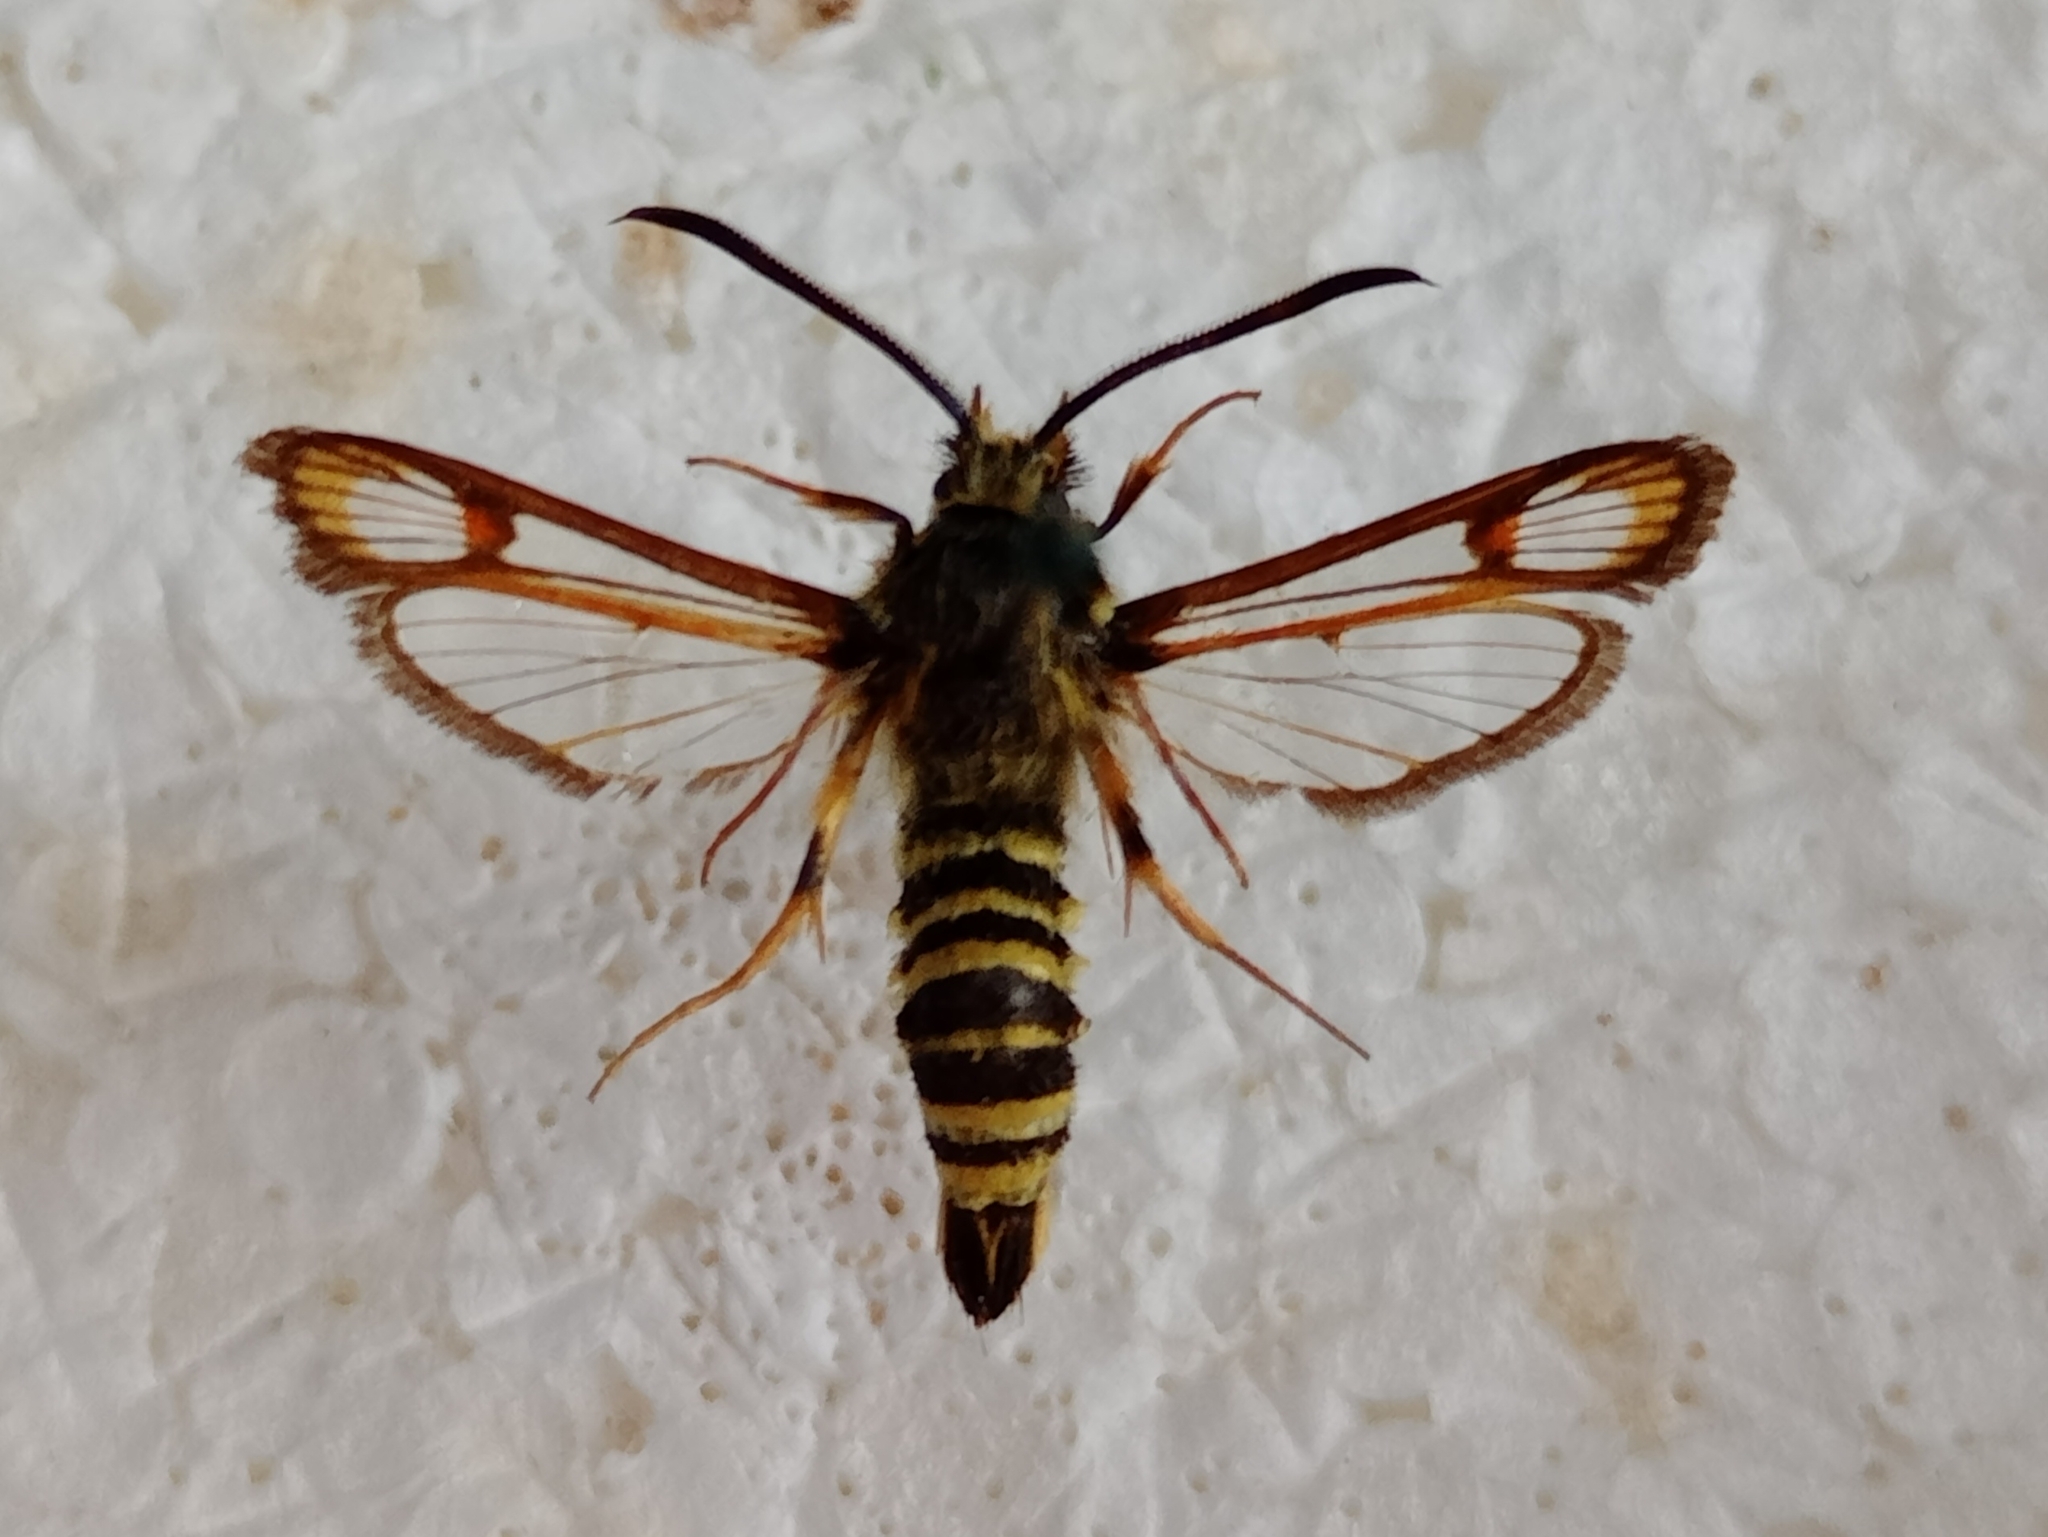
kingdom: Animalia
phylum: Arthropoda
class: Insecta
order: Lepidoptera
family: Sesiidae
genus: Bembecia
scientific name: Bembecia ichneumoniformis
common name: Six-belted clearwing
